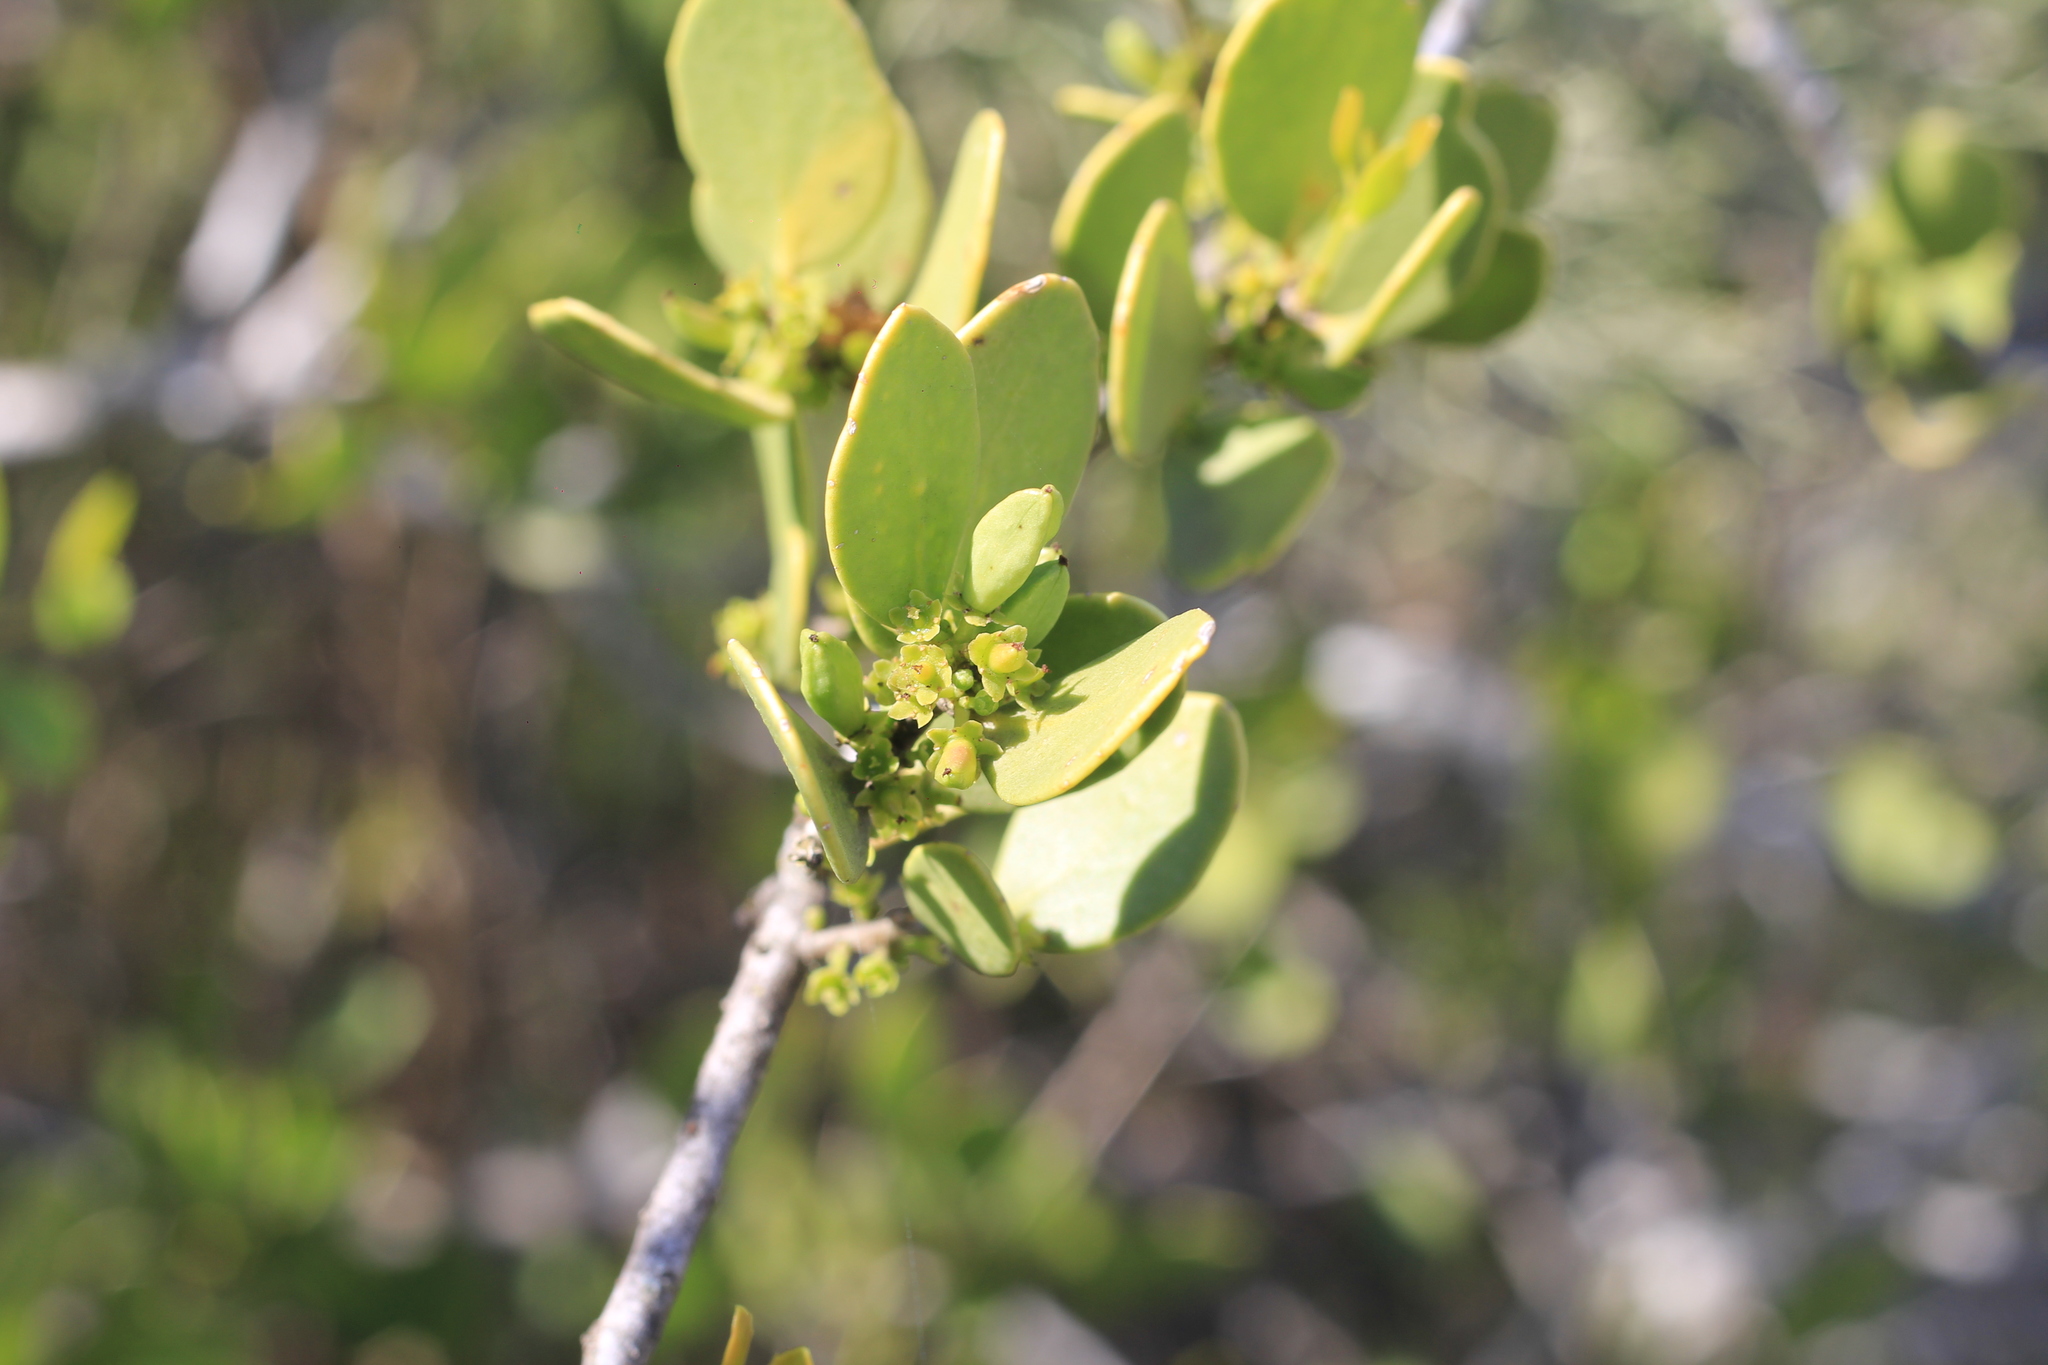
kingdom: Plantae
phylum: Tracheophyta
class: Magnoliopsida
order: Celastrales
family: Celastraceae
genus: Tricerma
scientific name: Tricerma vitis-idaeum
